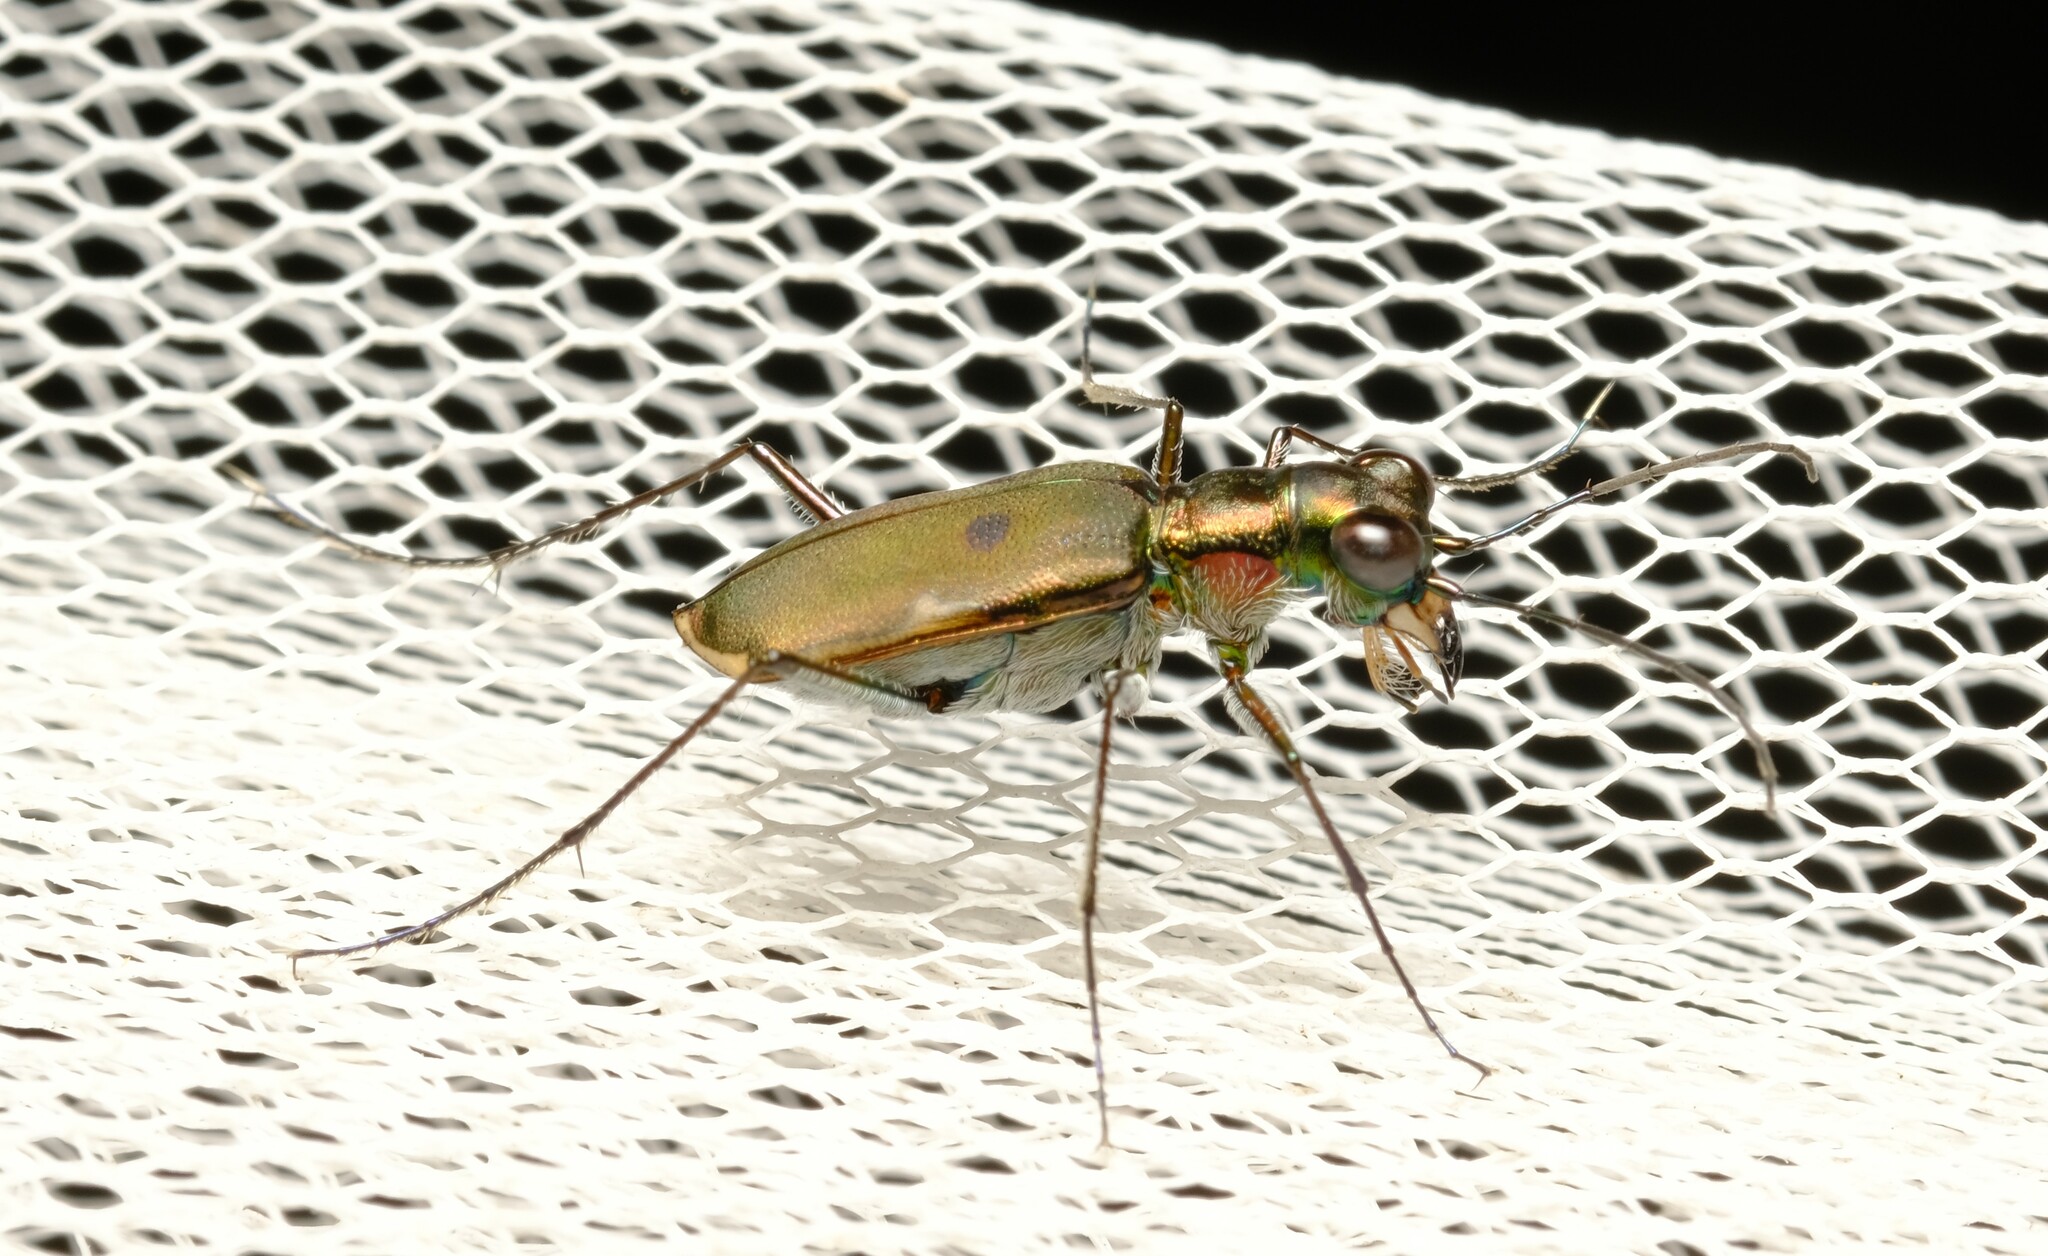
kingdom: Animalia
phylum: Arthropoda
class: Insecta
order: Coleoptera
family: Carabidae
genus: Myriochila
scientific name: Myriochila semicincta
